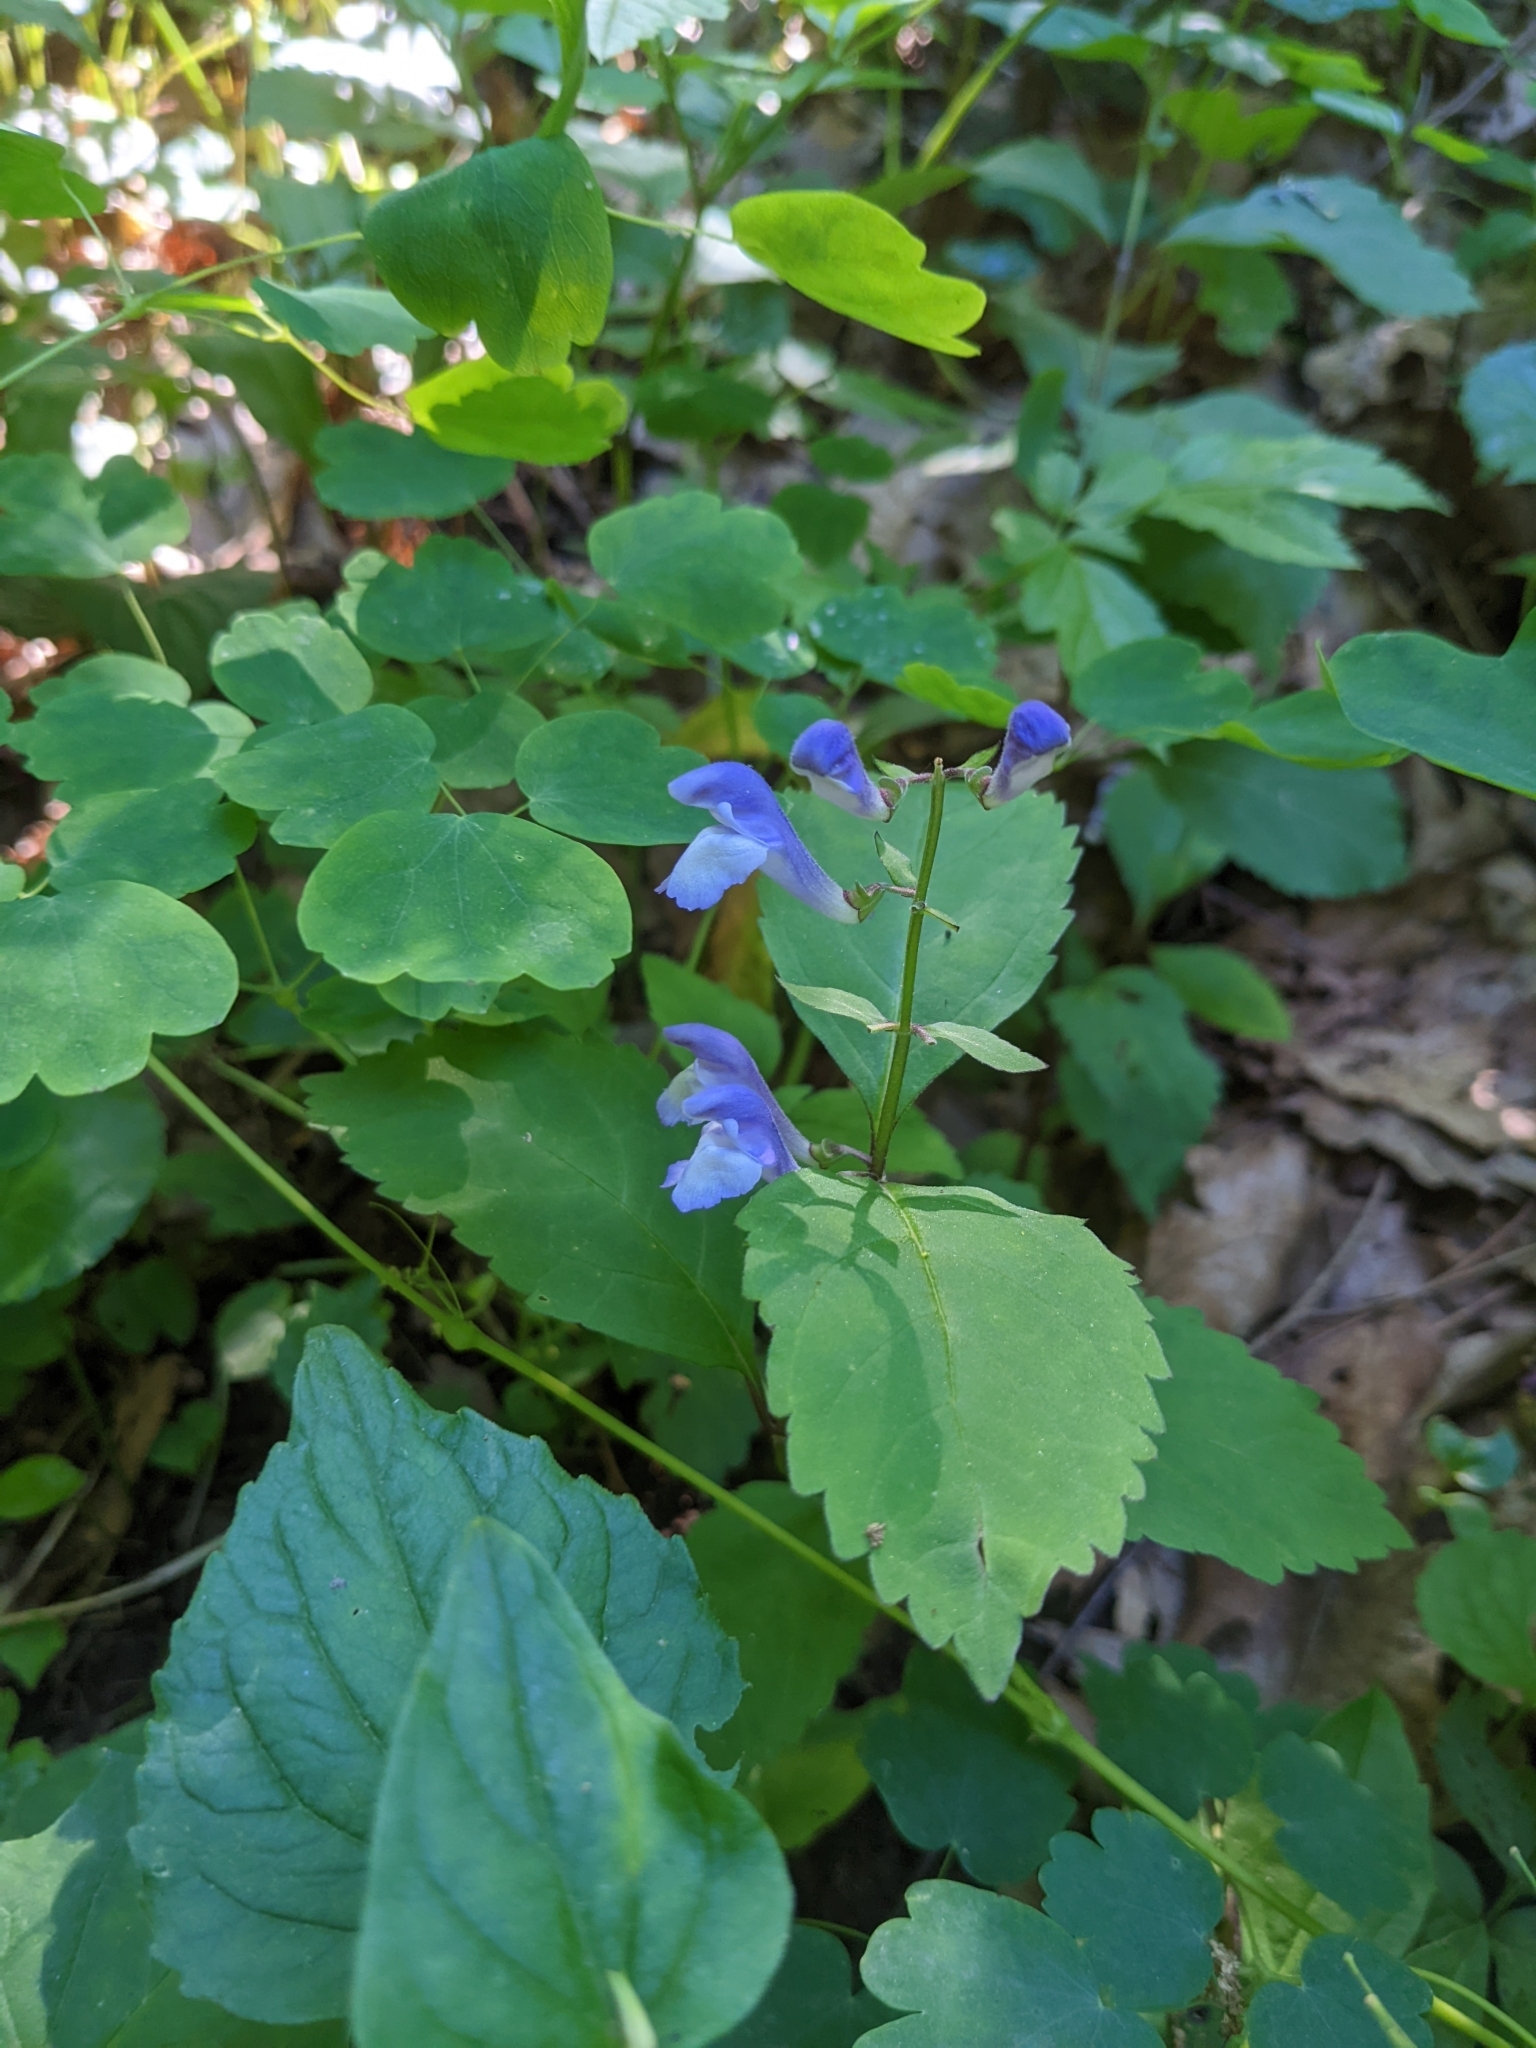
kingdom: Plantae
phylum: Tracheophyta
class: Magnoliopsida
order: Lamiales
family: Lamiaceae
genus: Scutellaria
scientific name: Scutellaria serrata
